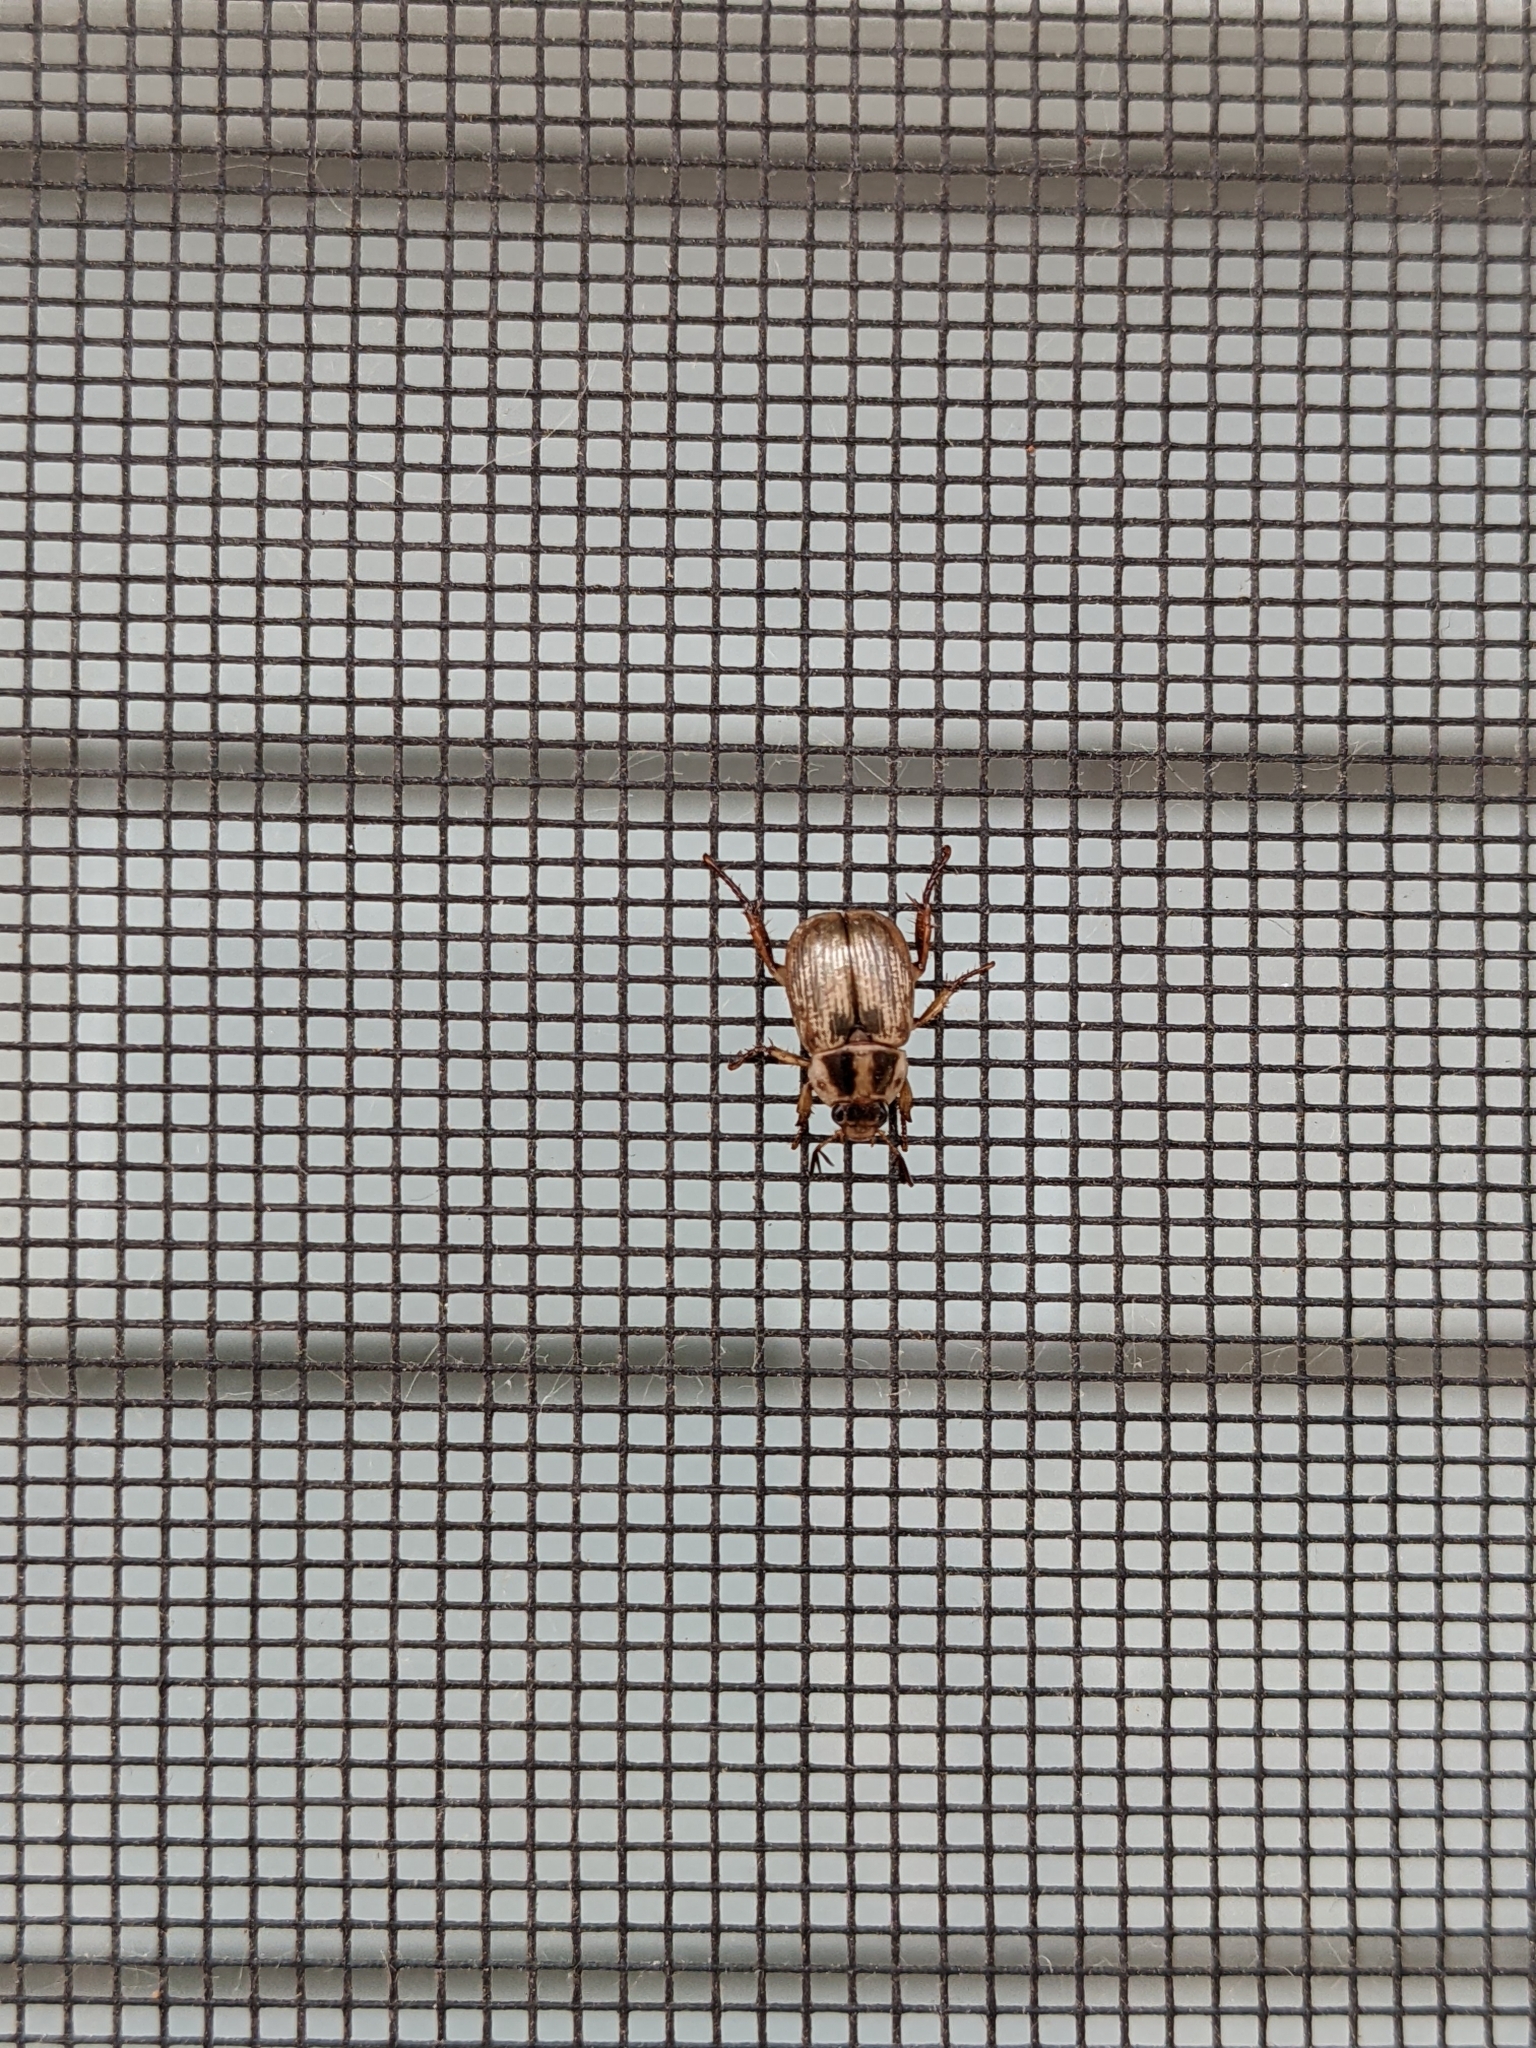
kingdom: Animalia
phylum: Arthropoda
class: Insecta
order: Coleoptera
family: Scarabaeidae
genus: Exomala
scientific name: Exomala orientalis
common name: Oriental beetle
